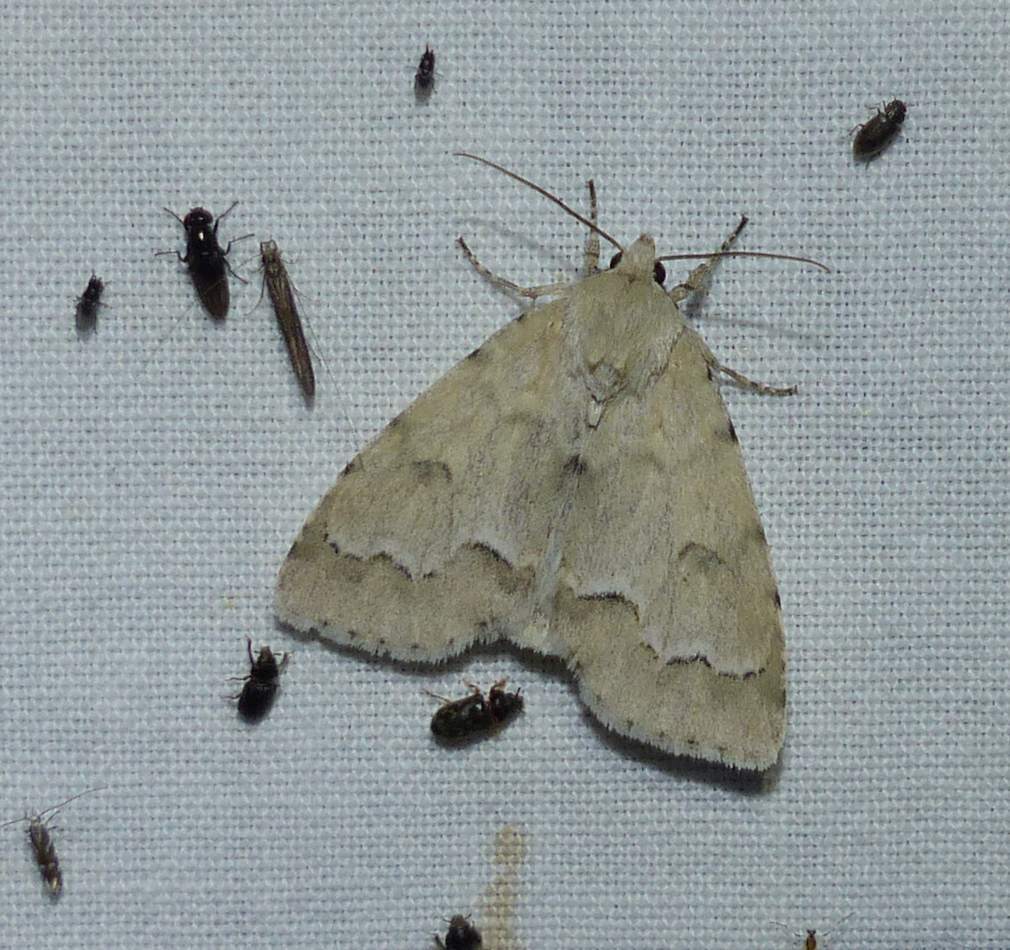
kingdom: Animalia
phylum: Arthropoda
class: Insecta
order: Lepidoptera
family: Noctuidae
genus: Acronicta
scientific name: Acronicta innotata
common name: Unmarked dagger
